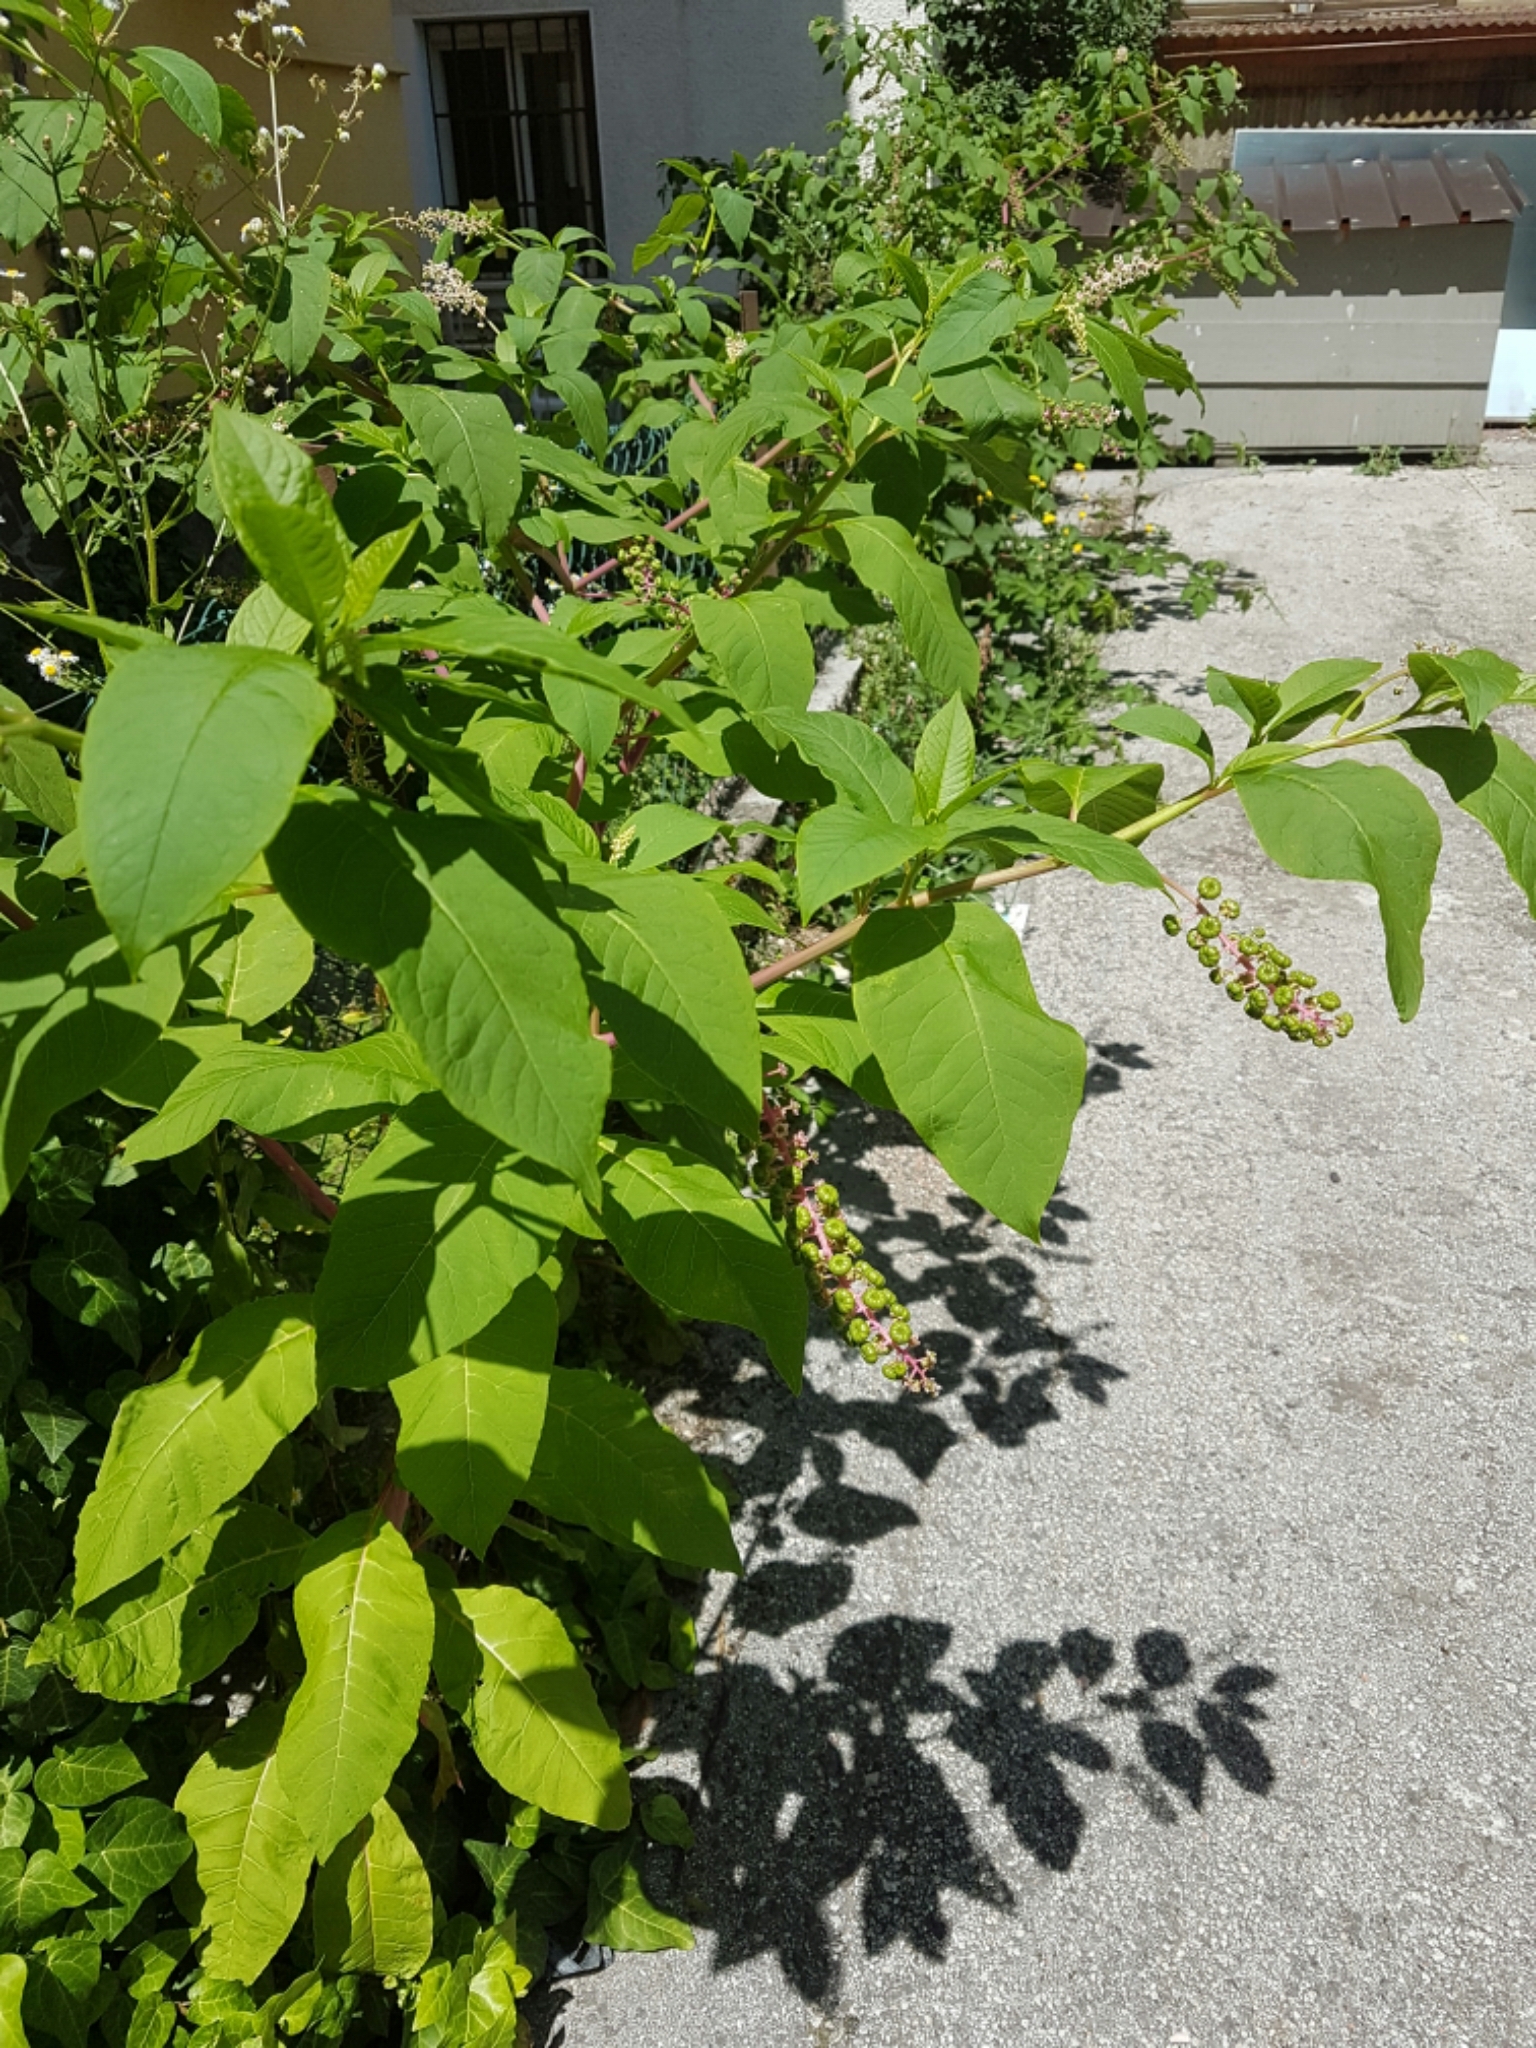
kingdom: Plantae
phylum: Tracheophyta
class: Magnoliopsida
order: Caryophyllales
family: Phytolaccaceae
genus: Phytolacca
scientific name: Phytolacca americana
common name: American pokeweed
